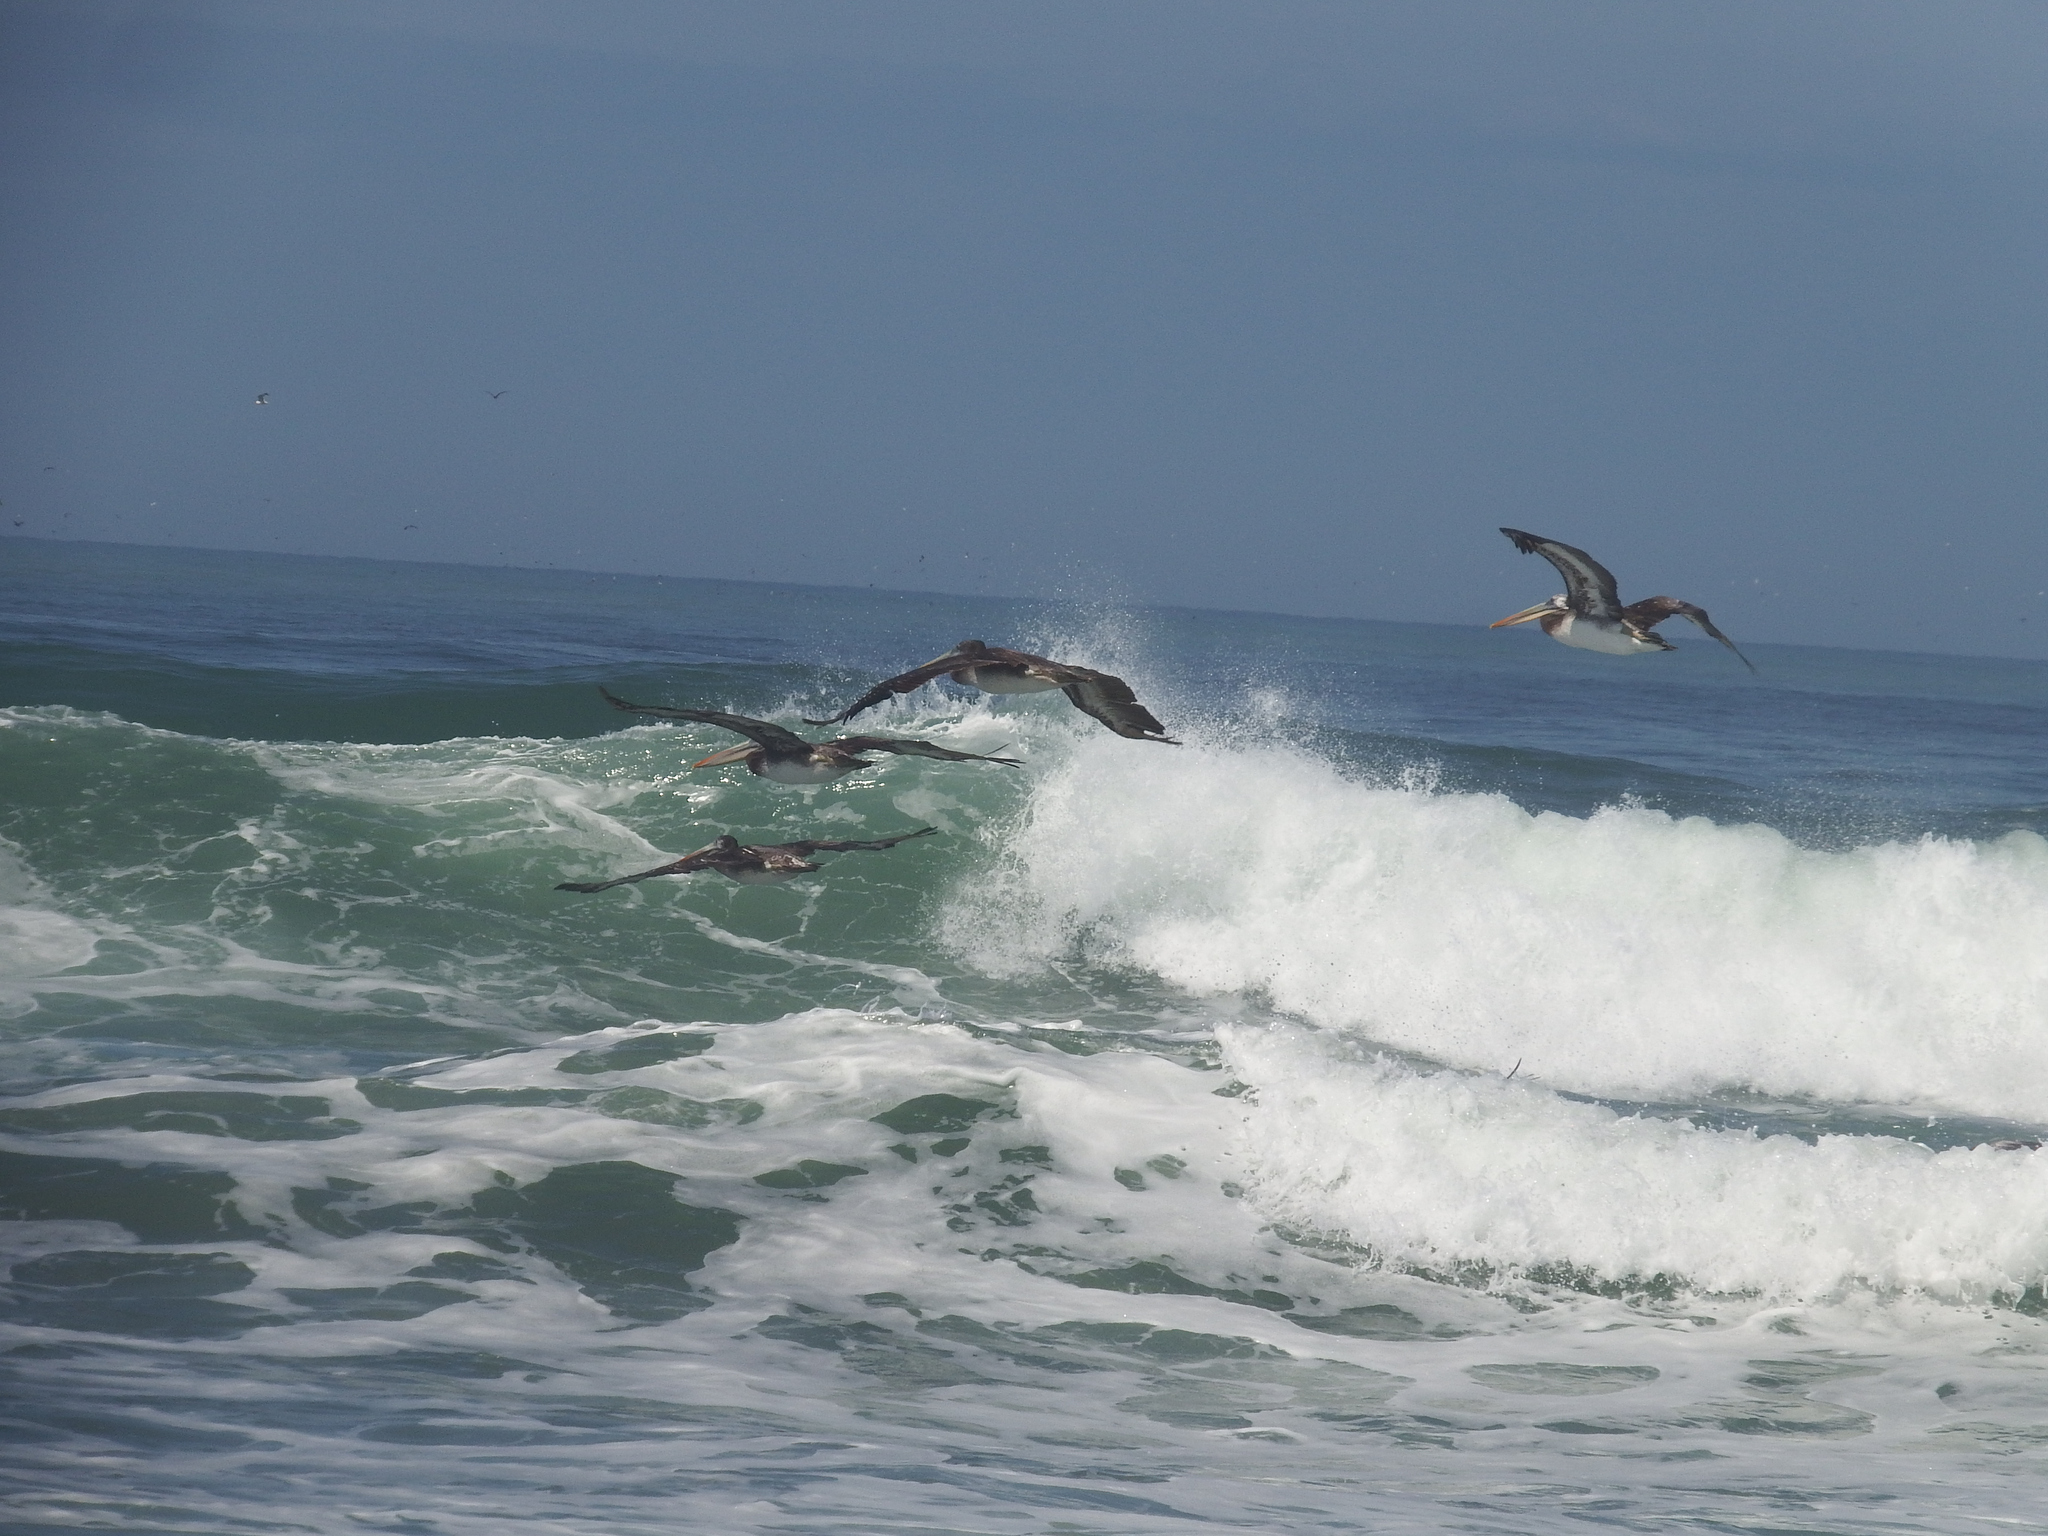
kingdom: Animalia
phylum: Chordata
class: Aves
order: Pelecaniformes
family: Pelecanidae
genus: Pelecanus
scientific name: Pelecanus thagus
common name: Peruvian pelican
